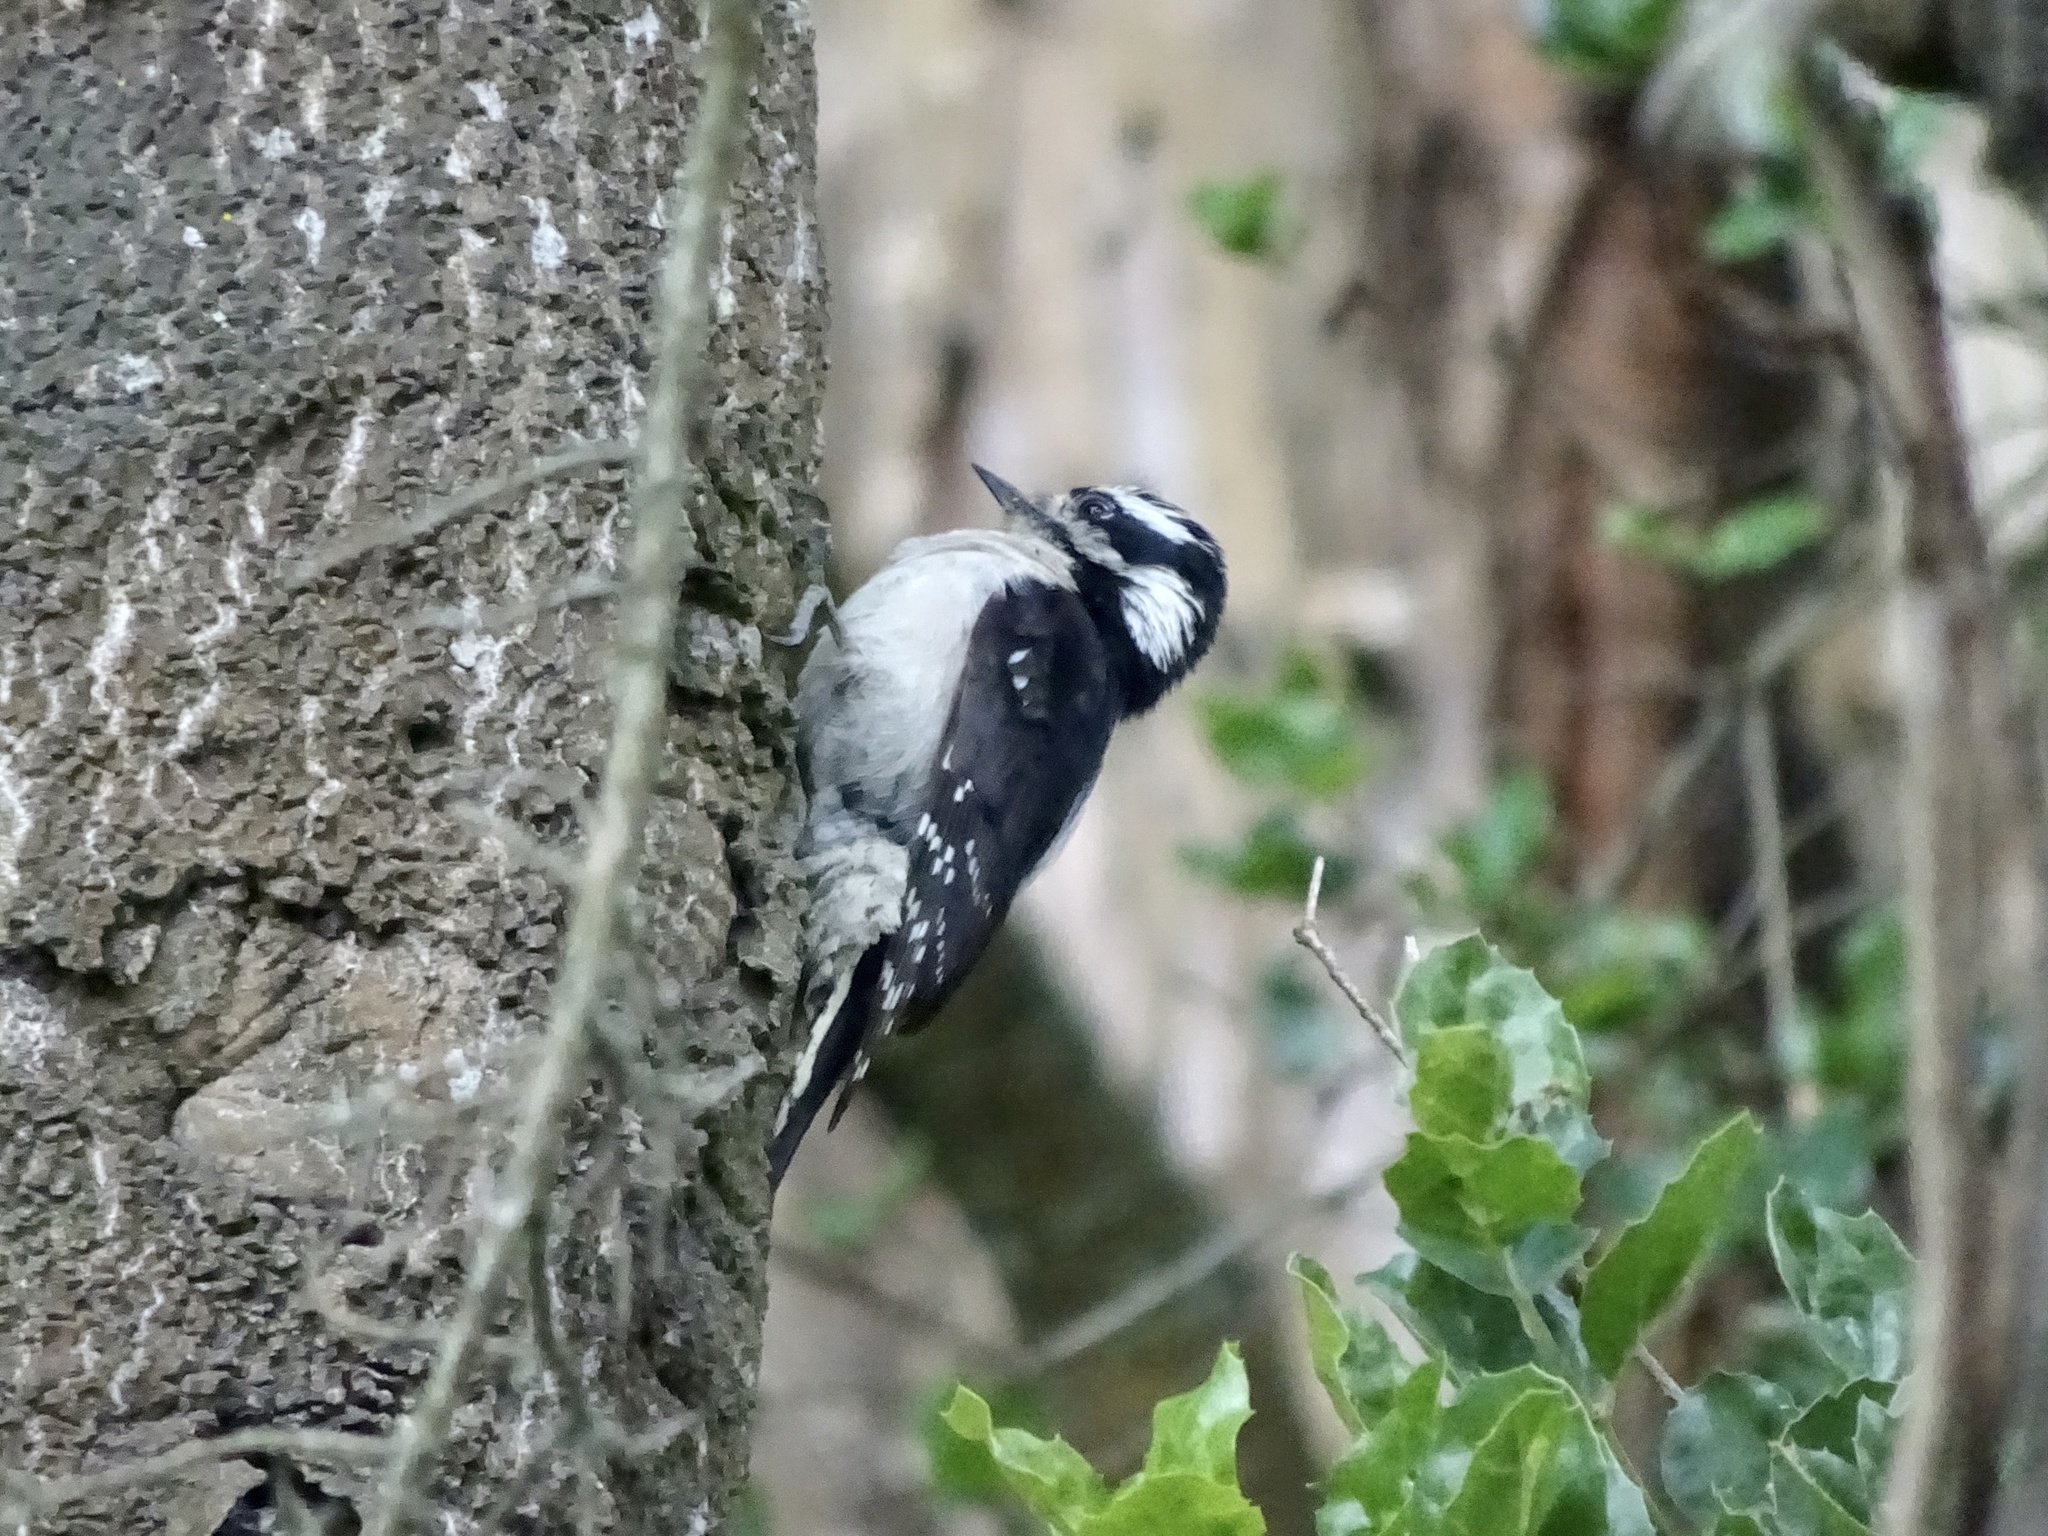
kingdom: Animalia
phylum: Chordata
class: Aves
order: Piciformes
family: Picidae
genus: Dryobates
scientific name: Dryobates pubescens
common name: Downy woodpecker
